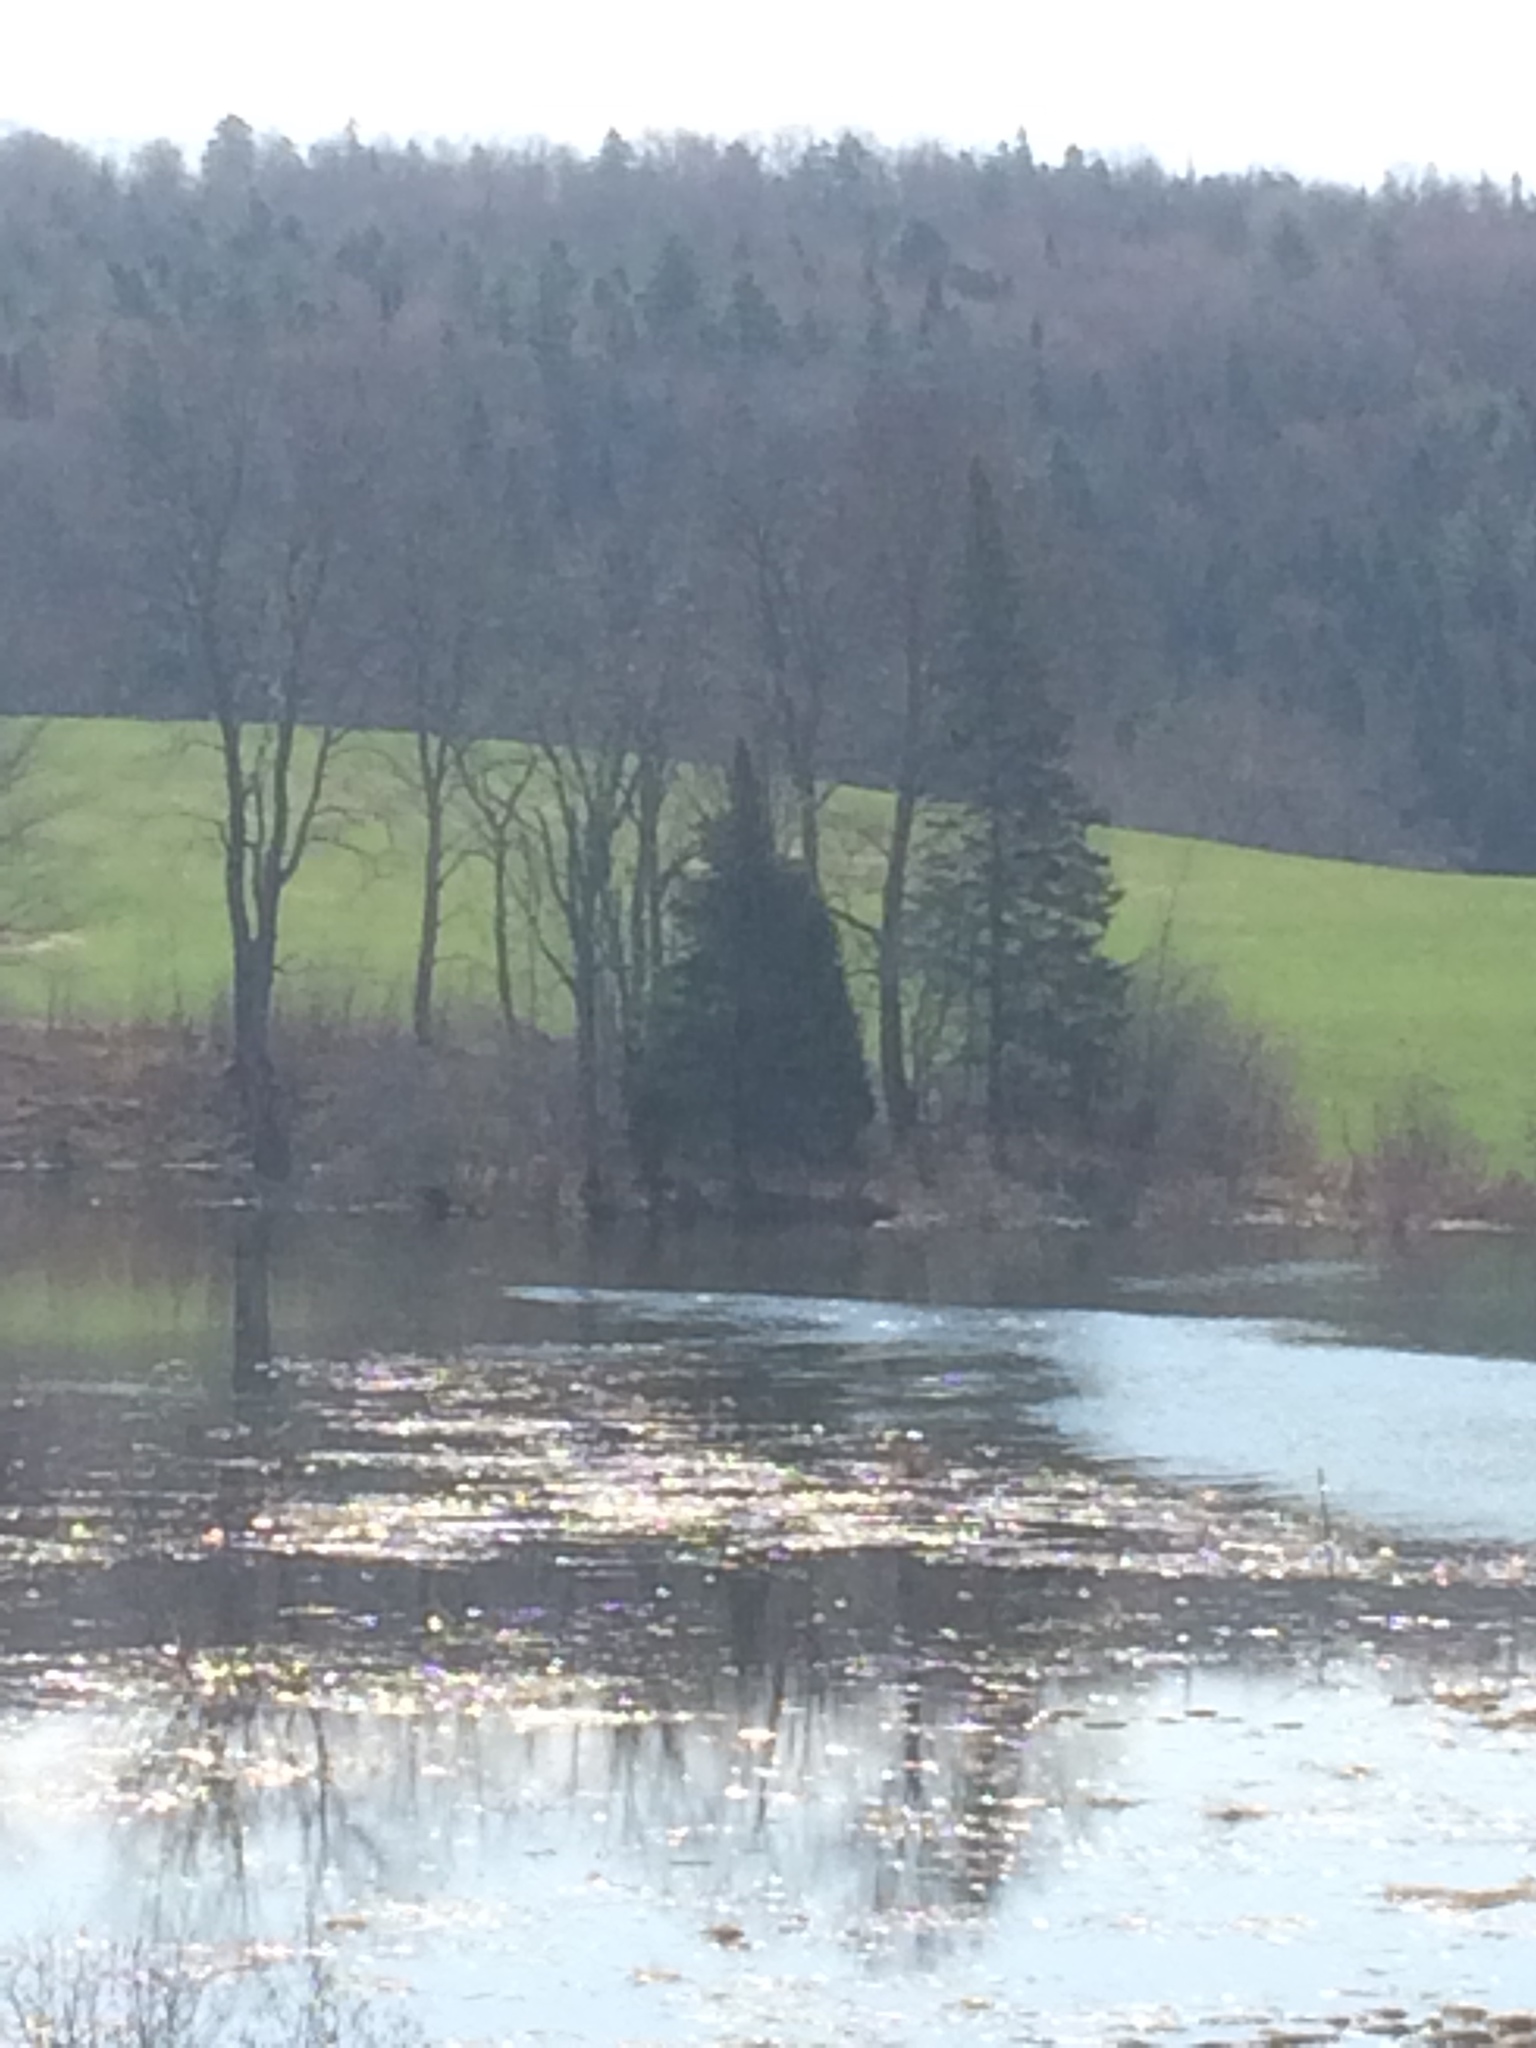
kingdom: Plantae
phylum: Tracheophyta
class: Pinopsida
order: Pinales
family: Pinaceae
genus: Abies
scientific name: Abies balsamea
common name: Balsam fir
